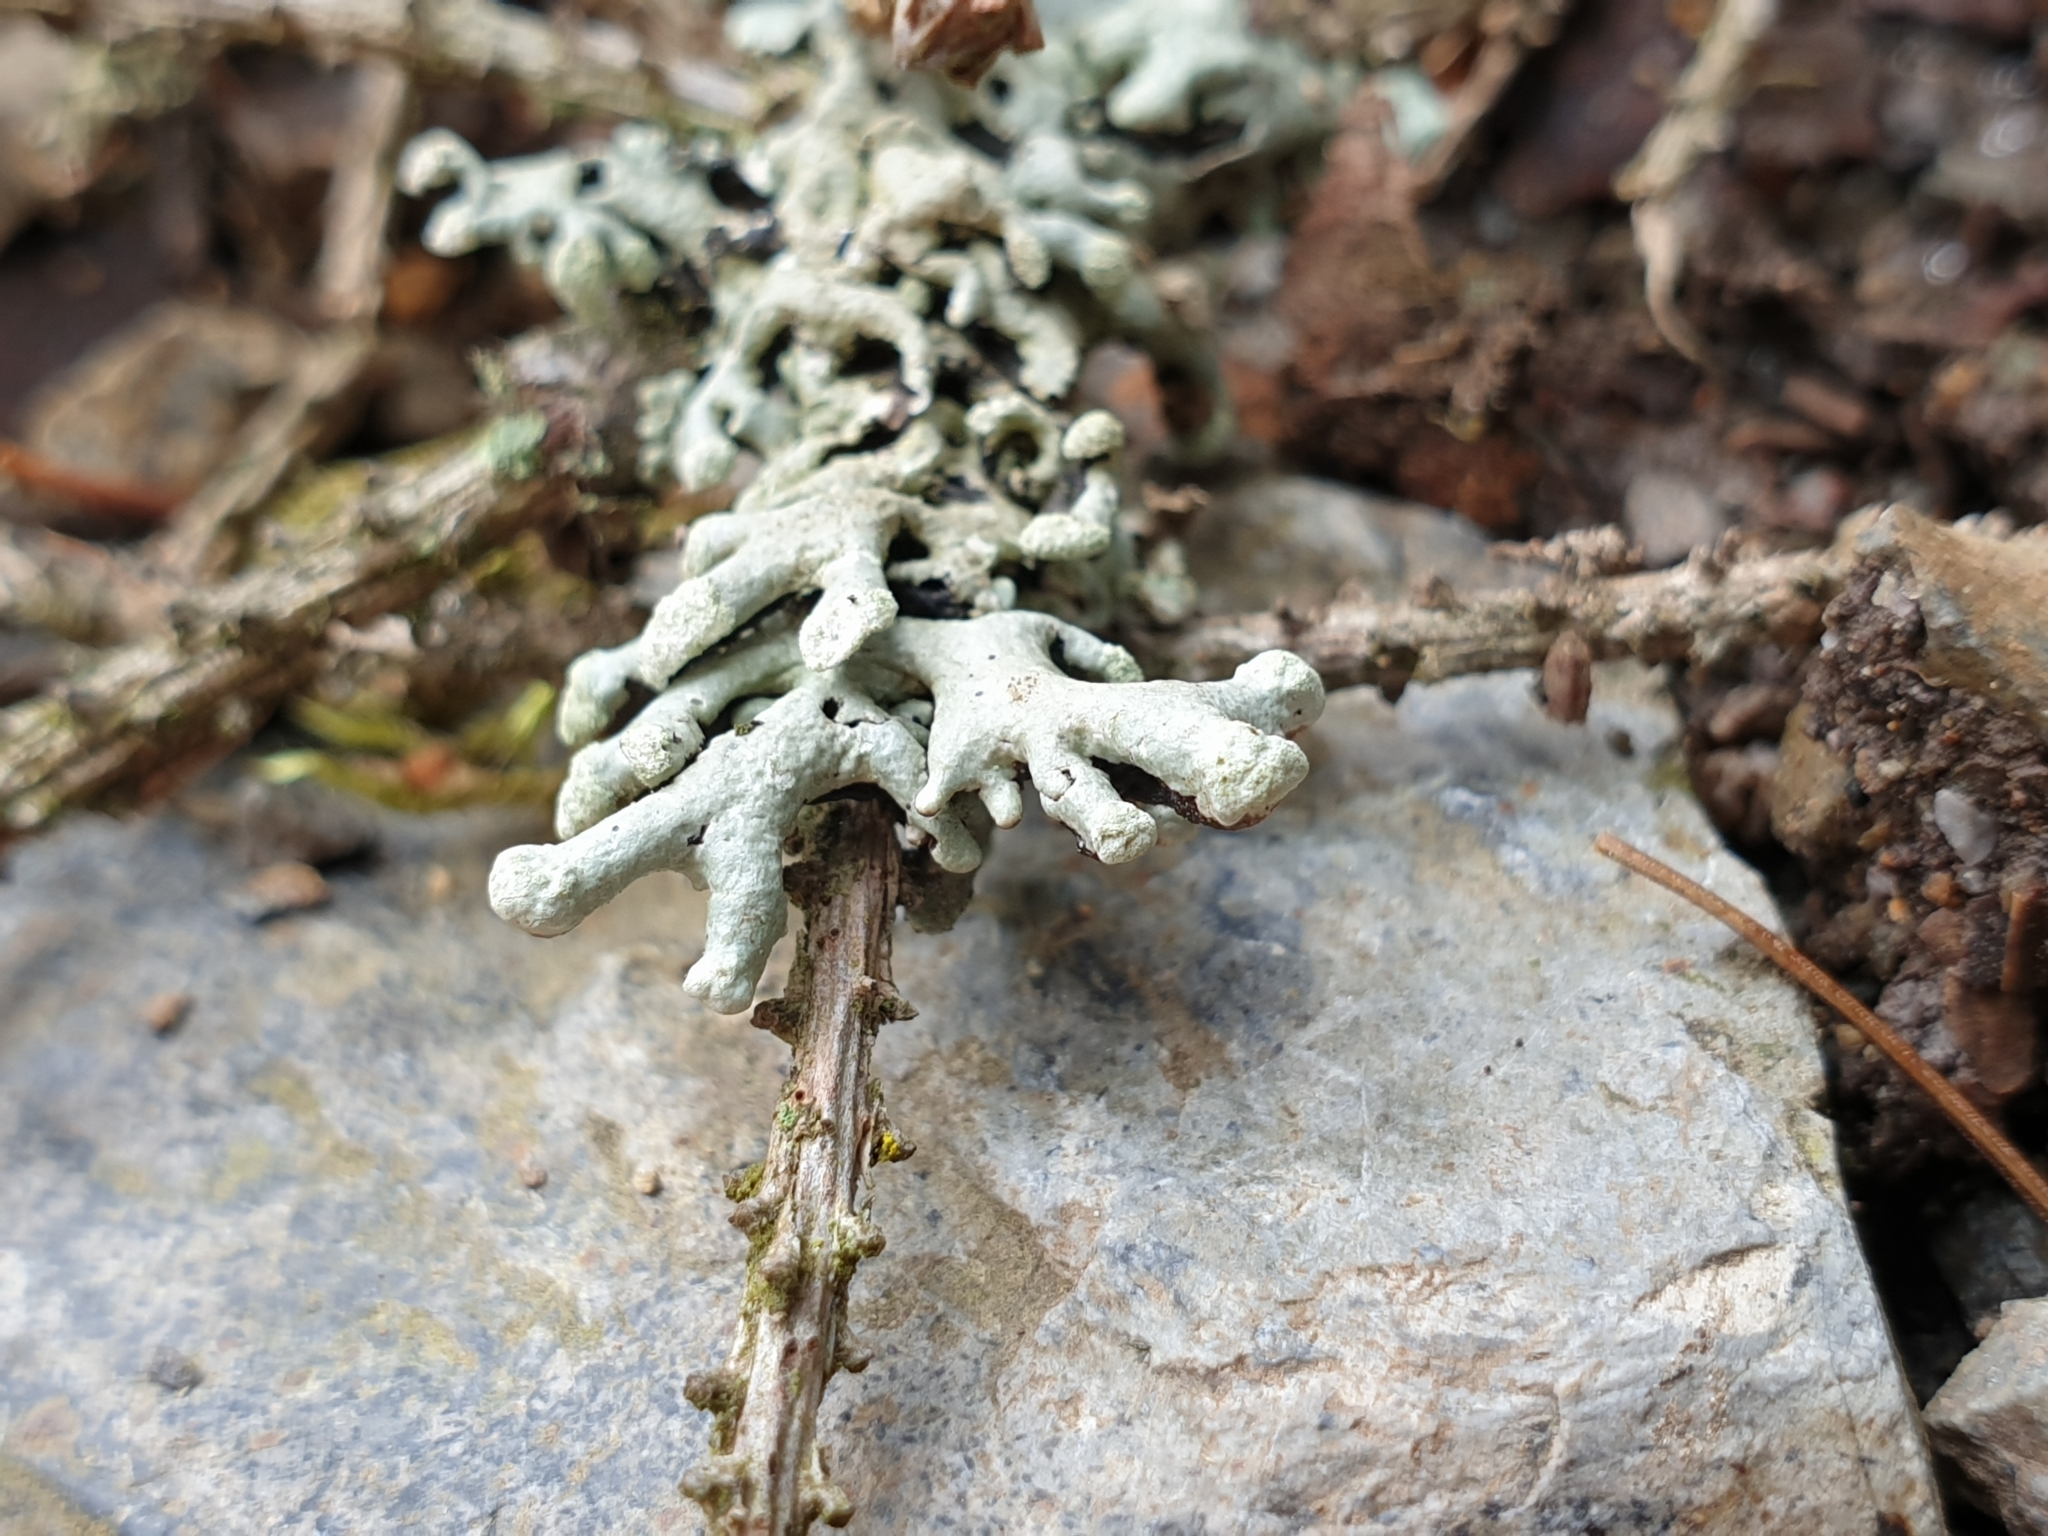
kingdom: Fungi
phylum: Ascomycota
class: Lecanoromycetes
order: Lecanorales
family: Parmeliaceae
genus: Hypogymnia
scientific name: Hypogymnia tubulosa
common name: Powder-headed tube lichen
